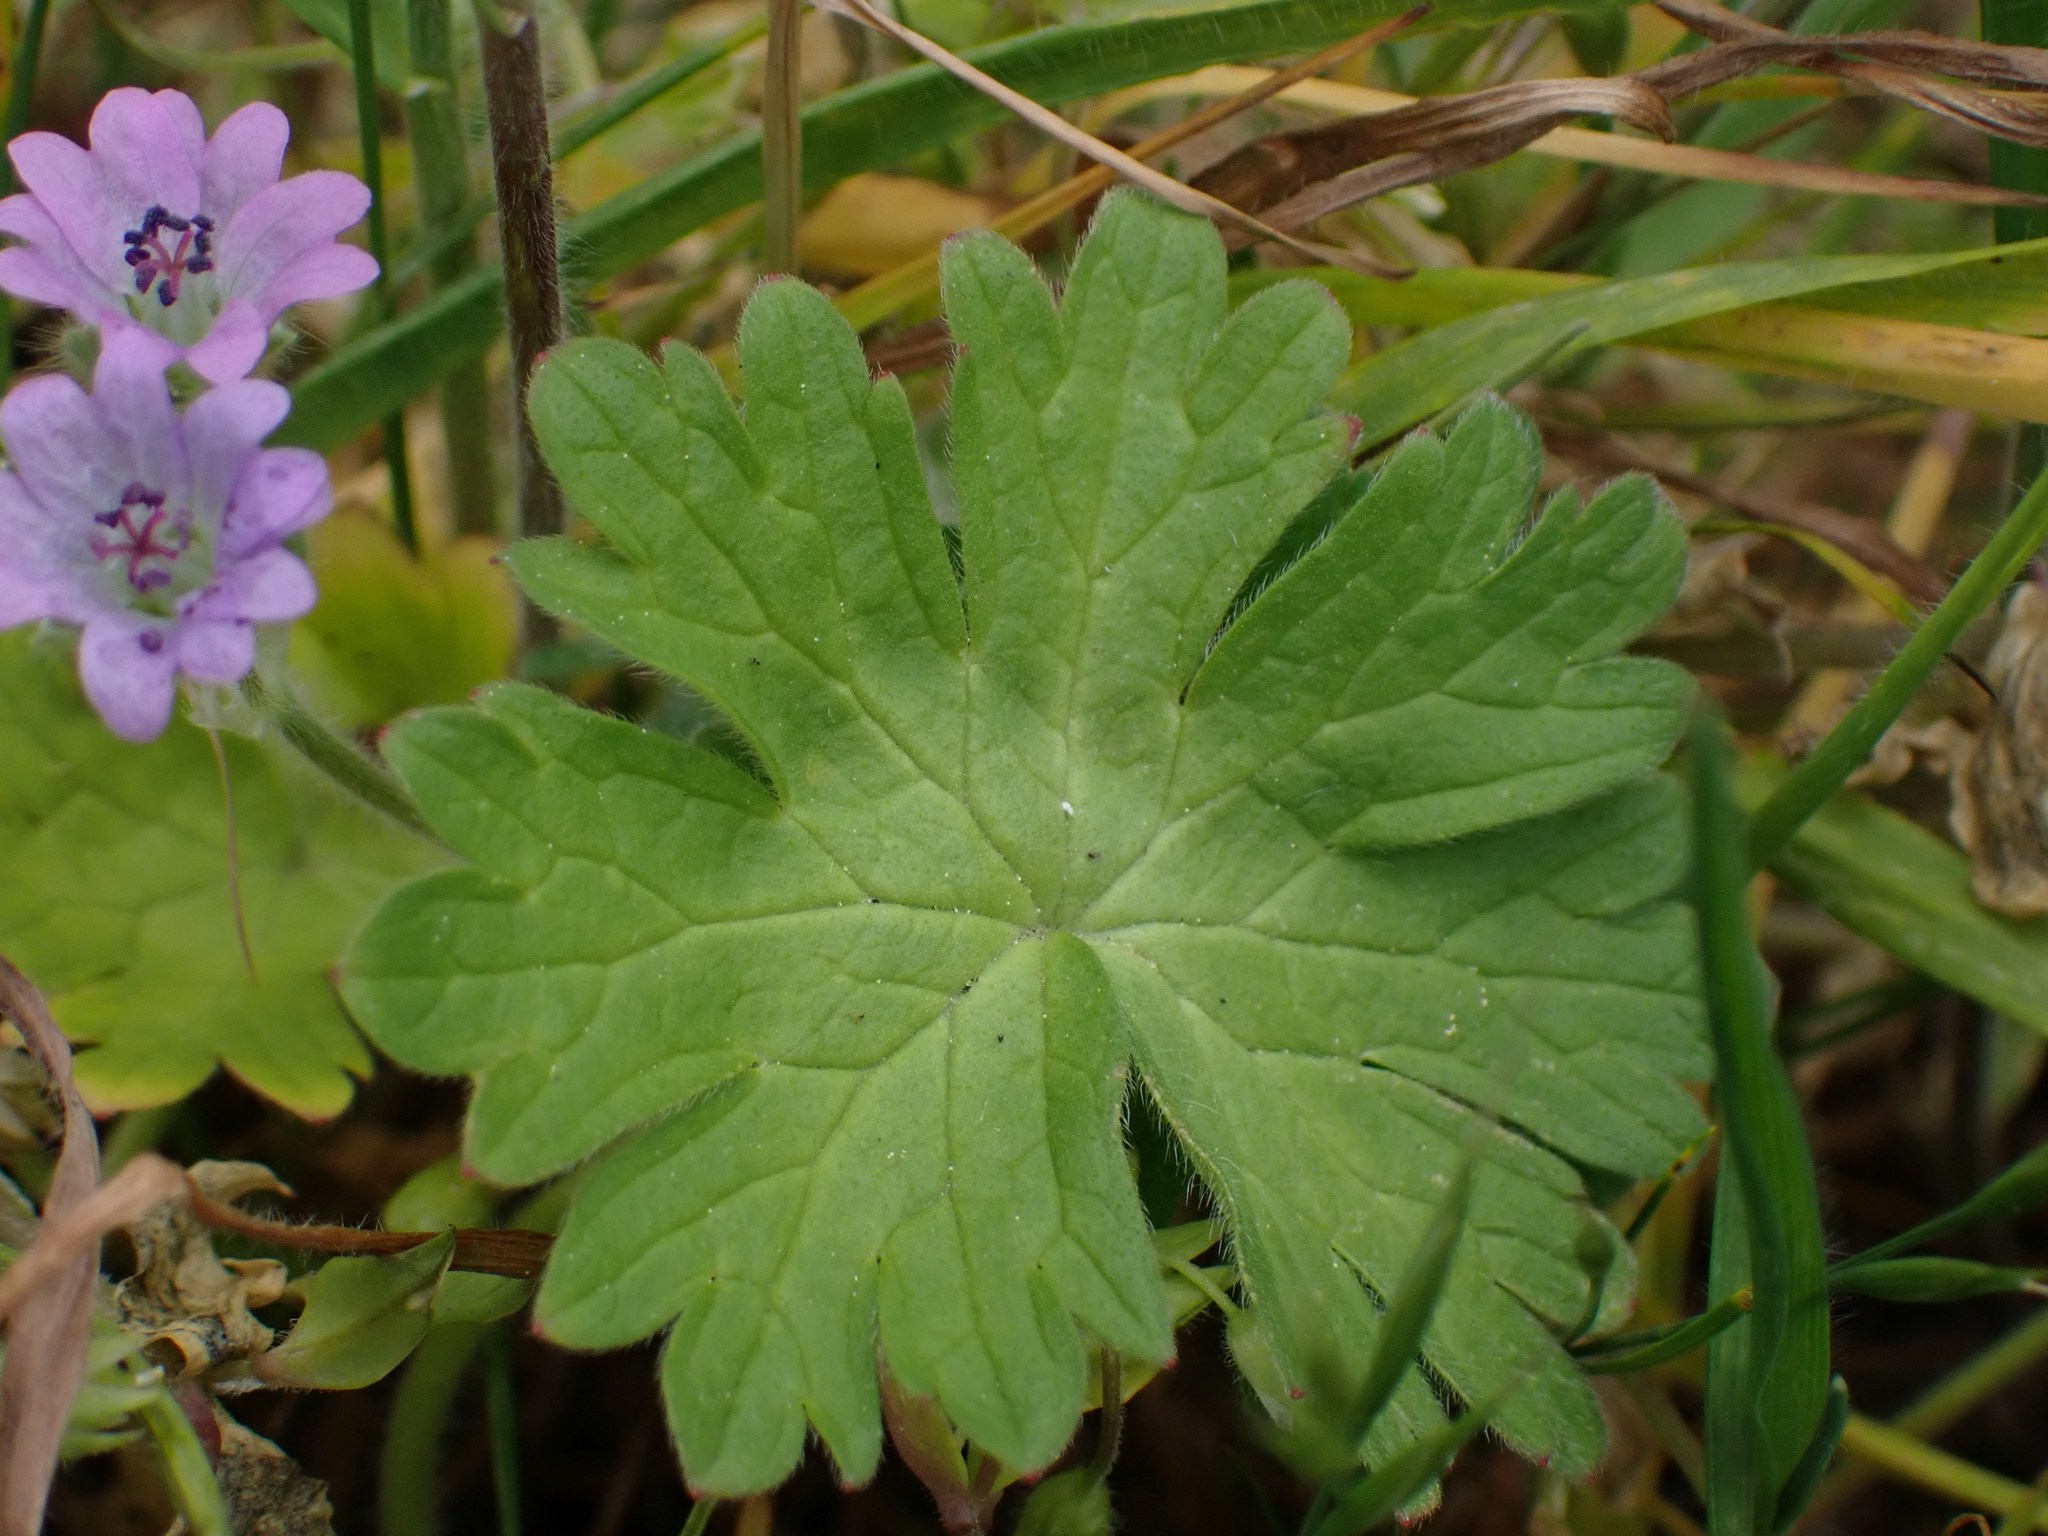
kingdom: Plantae
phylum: Tracheophyta
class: Magnoliopsida
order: Geraniales
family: Geraniaceae
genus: Geranium
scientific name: Geranium molle
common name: Dove's-foot crane's-bill
